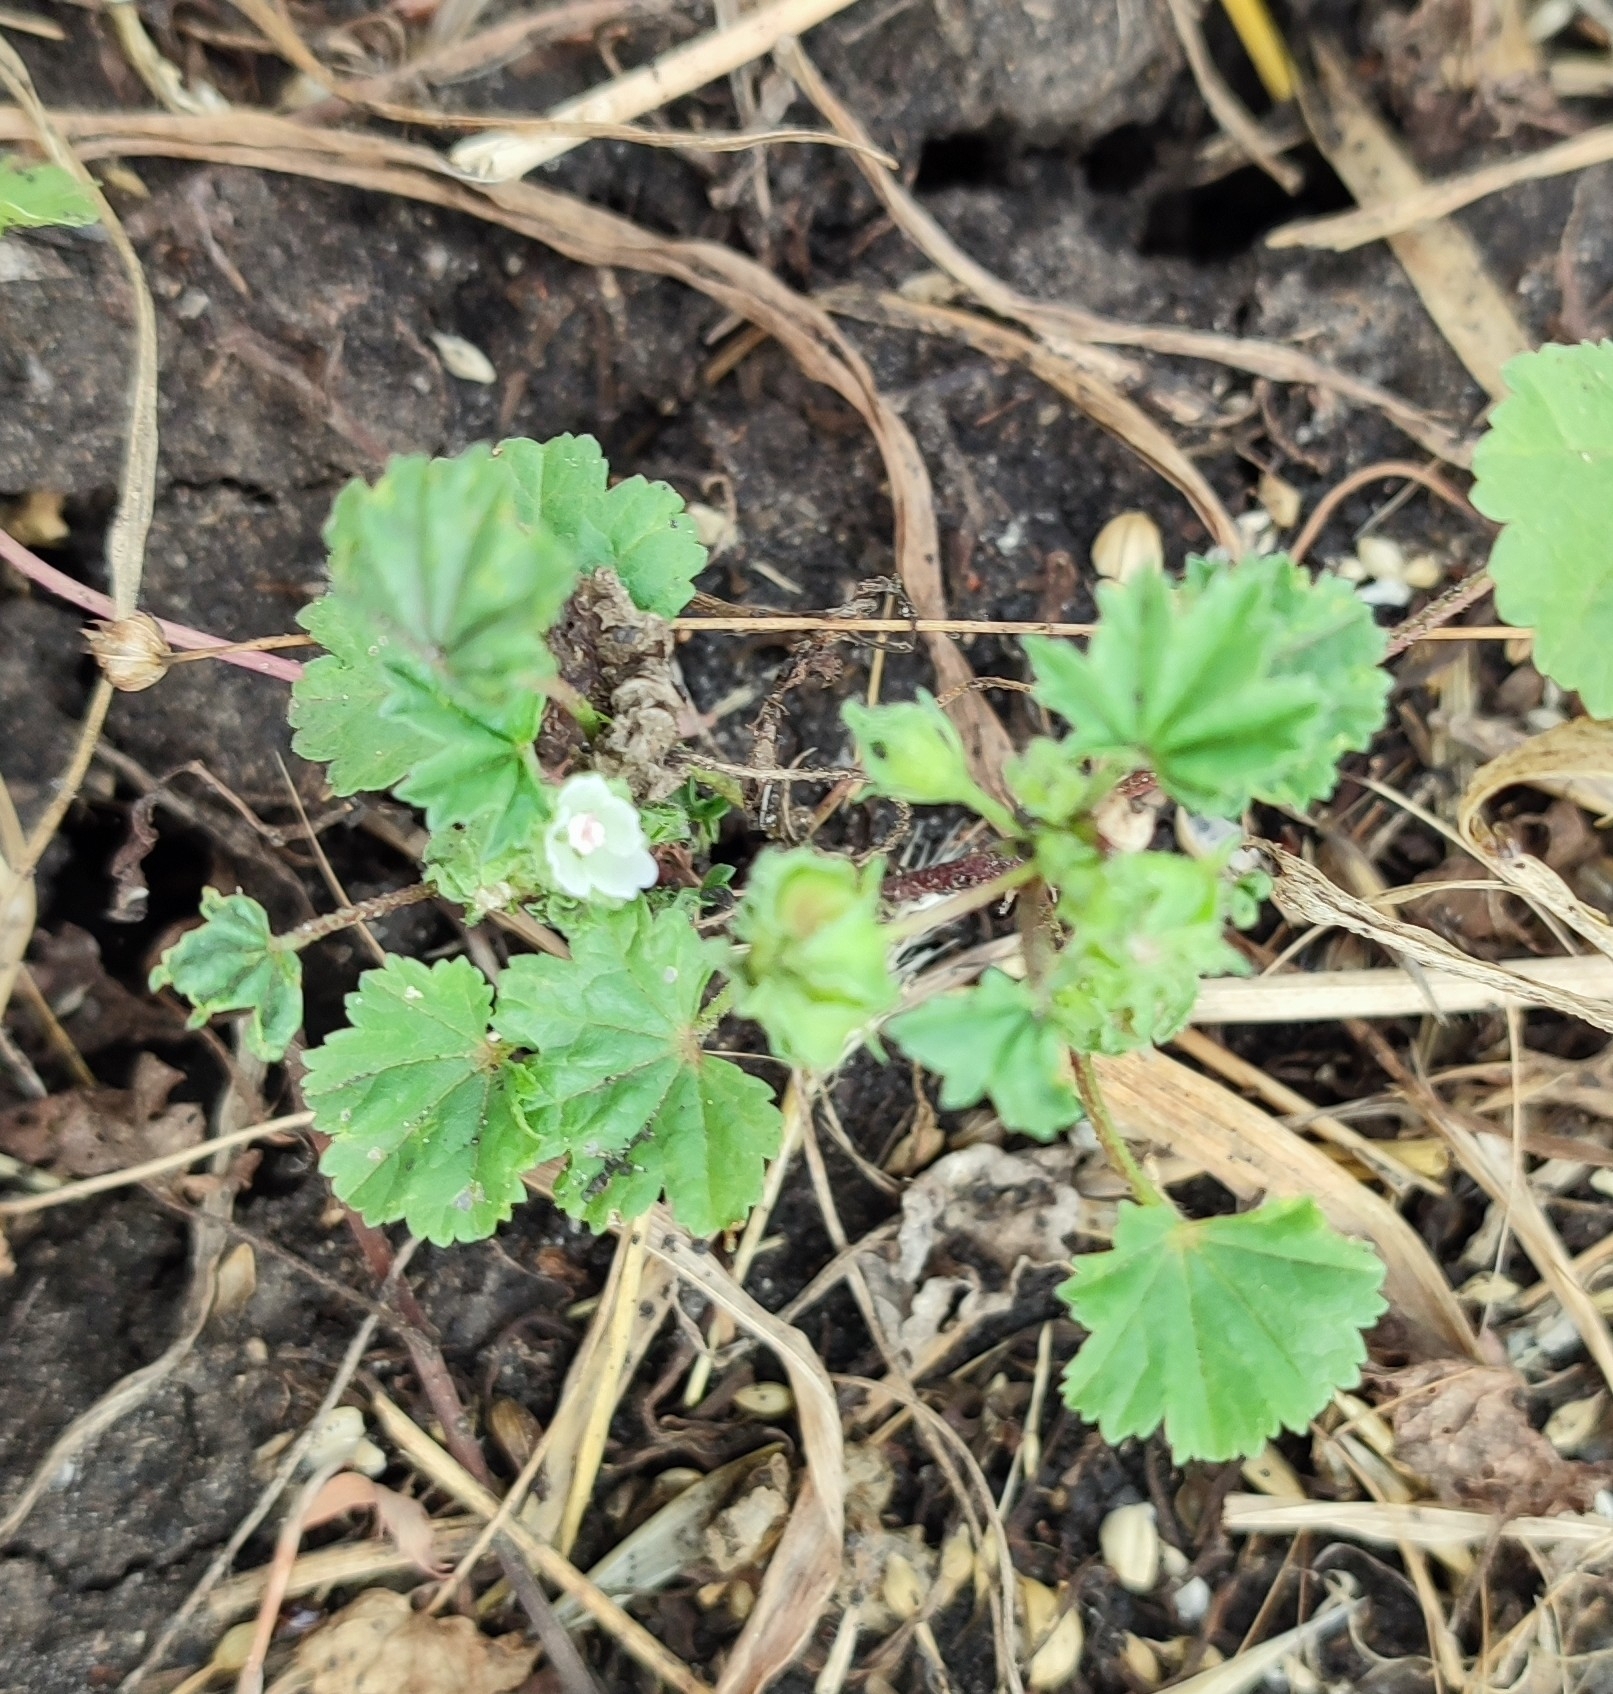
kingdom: Plantae
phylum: Tracheophyta
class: Magnoliopsida
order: Malvales
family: Malvaceae
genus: Malva
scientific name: Malva pusilla
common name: Small mallow
